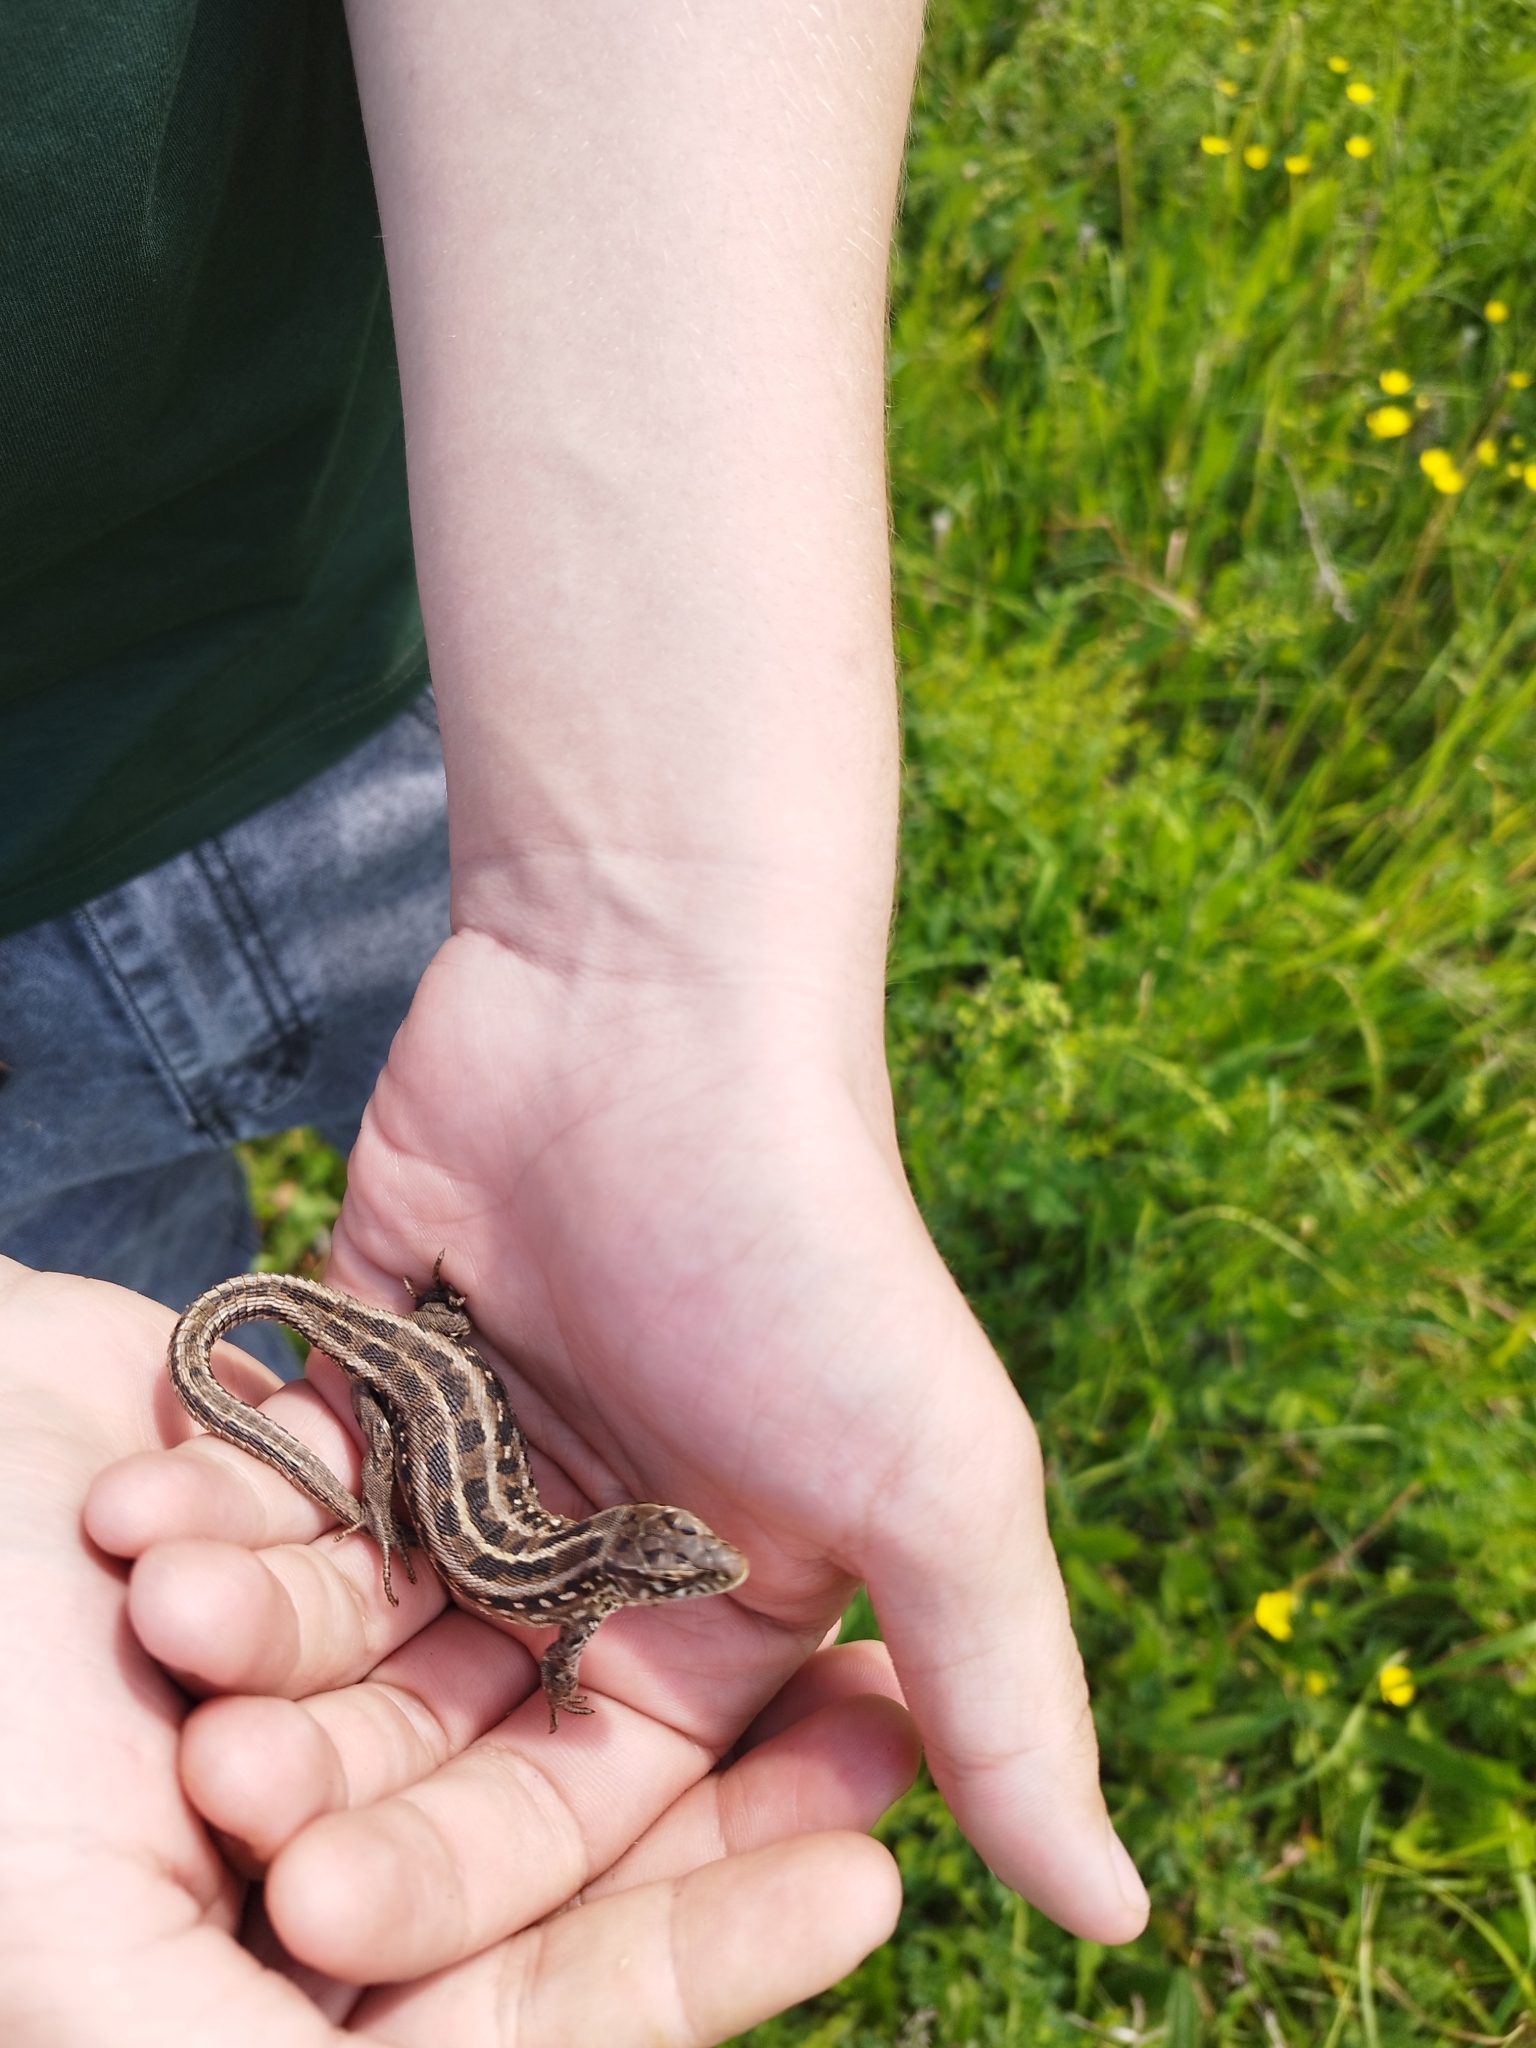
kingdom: Animalia
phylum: Chordata
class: Squamata
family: Lacertidae
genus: Lacerta
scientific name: Lacerta agilis
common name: Sand lizard
